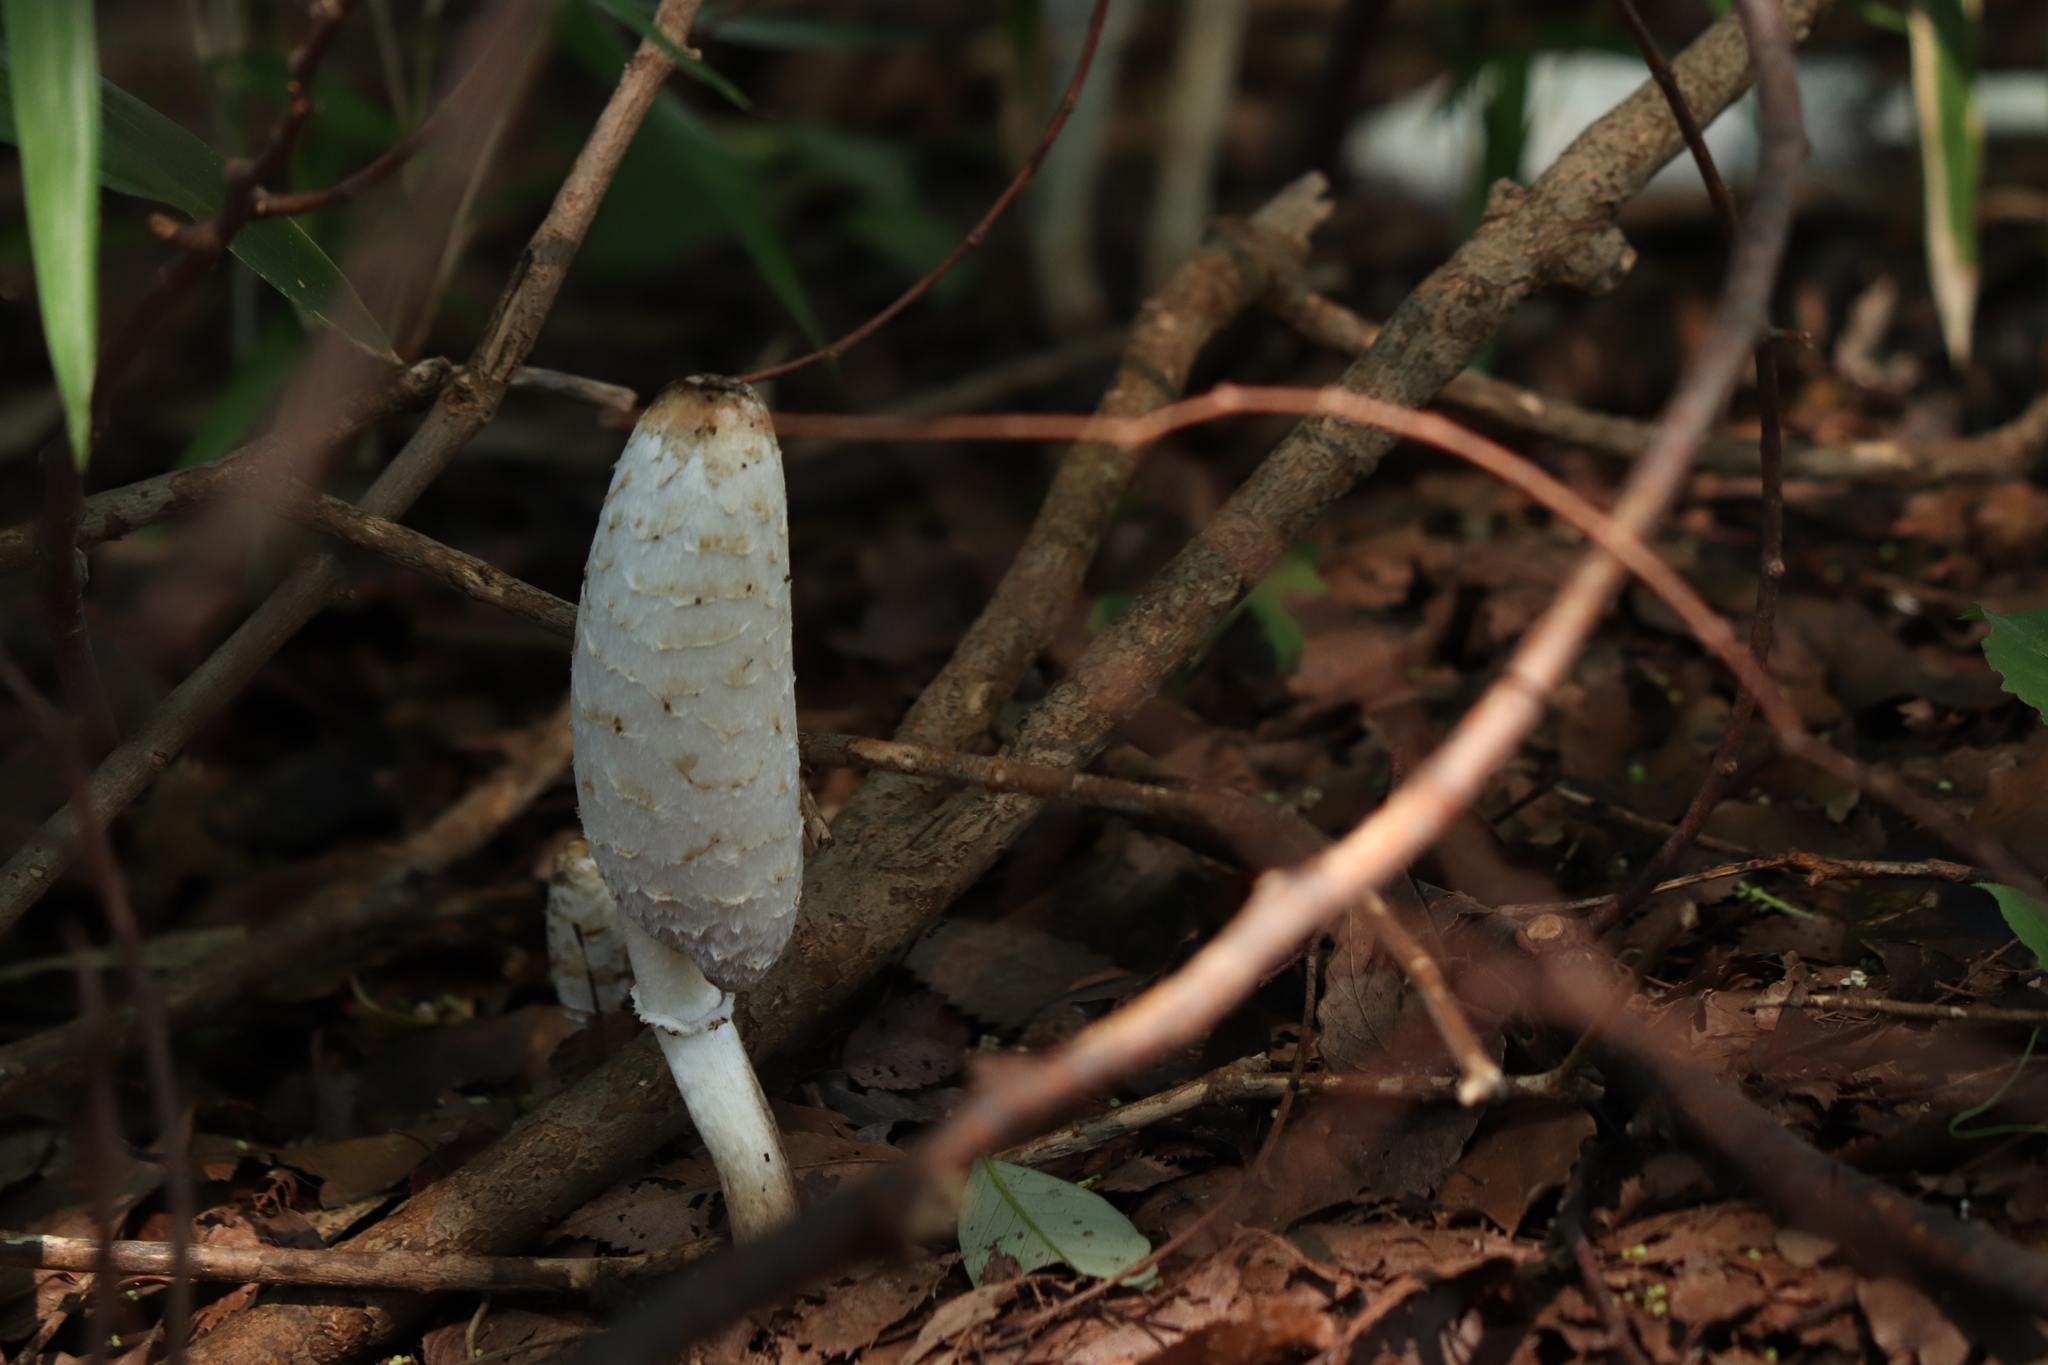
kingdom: Fungi
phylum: Basidiomycota
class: Agaricomycetes
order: Agaricales
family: Agaricaceae
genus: Coprinus
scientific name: Coprinus comatus
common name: Lawyer's wig
